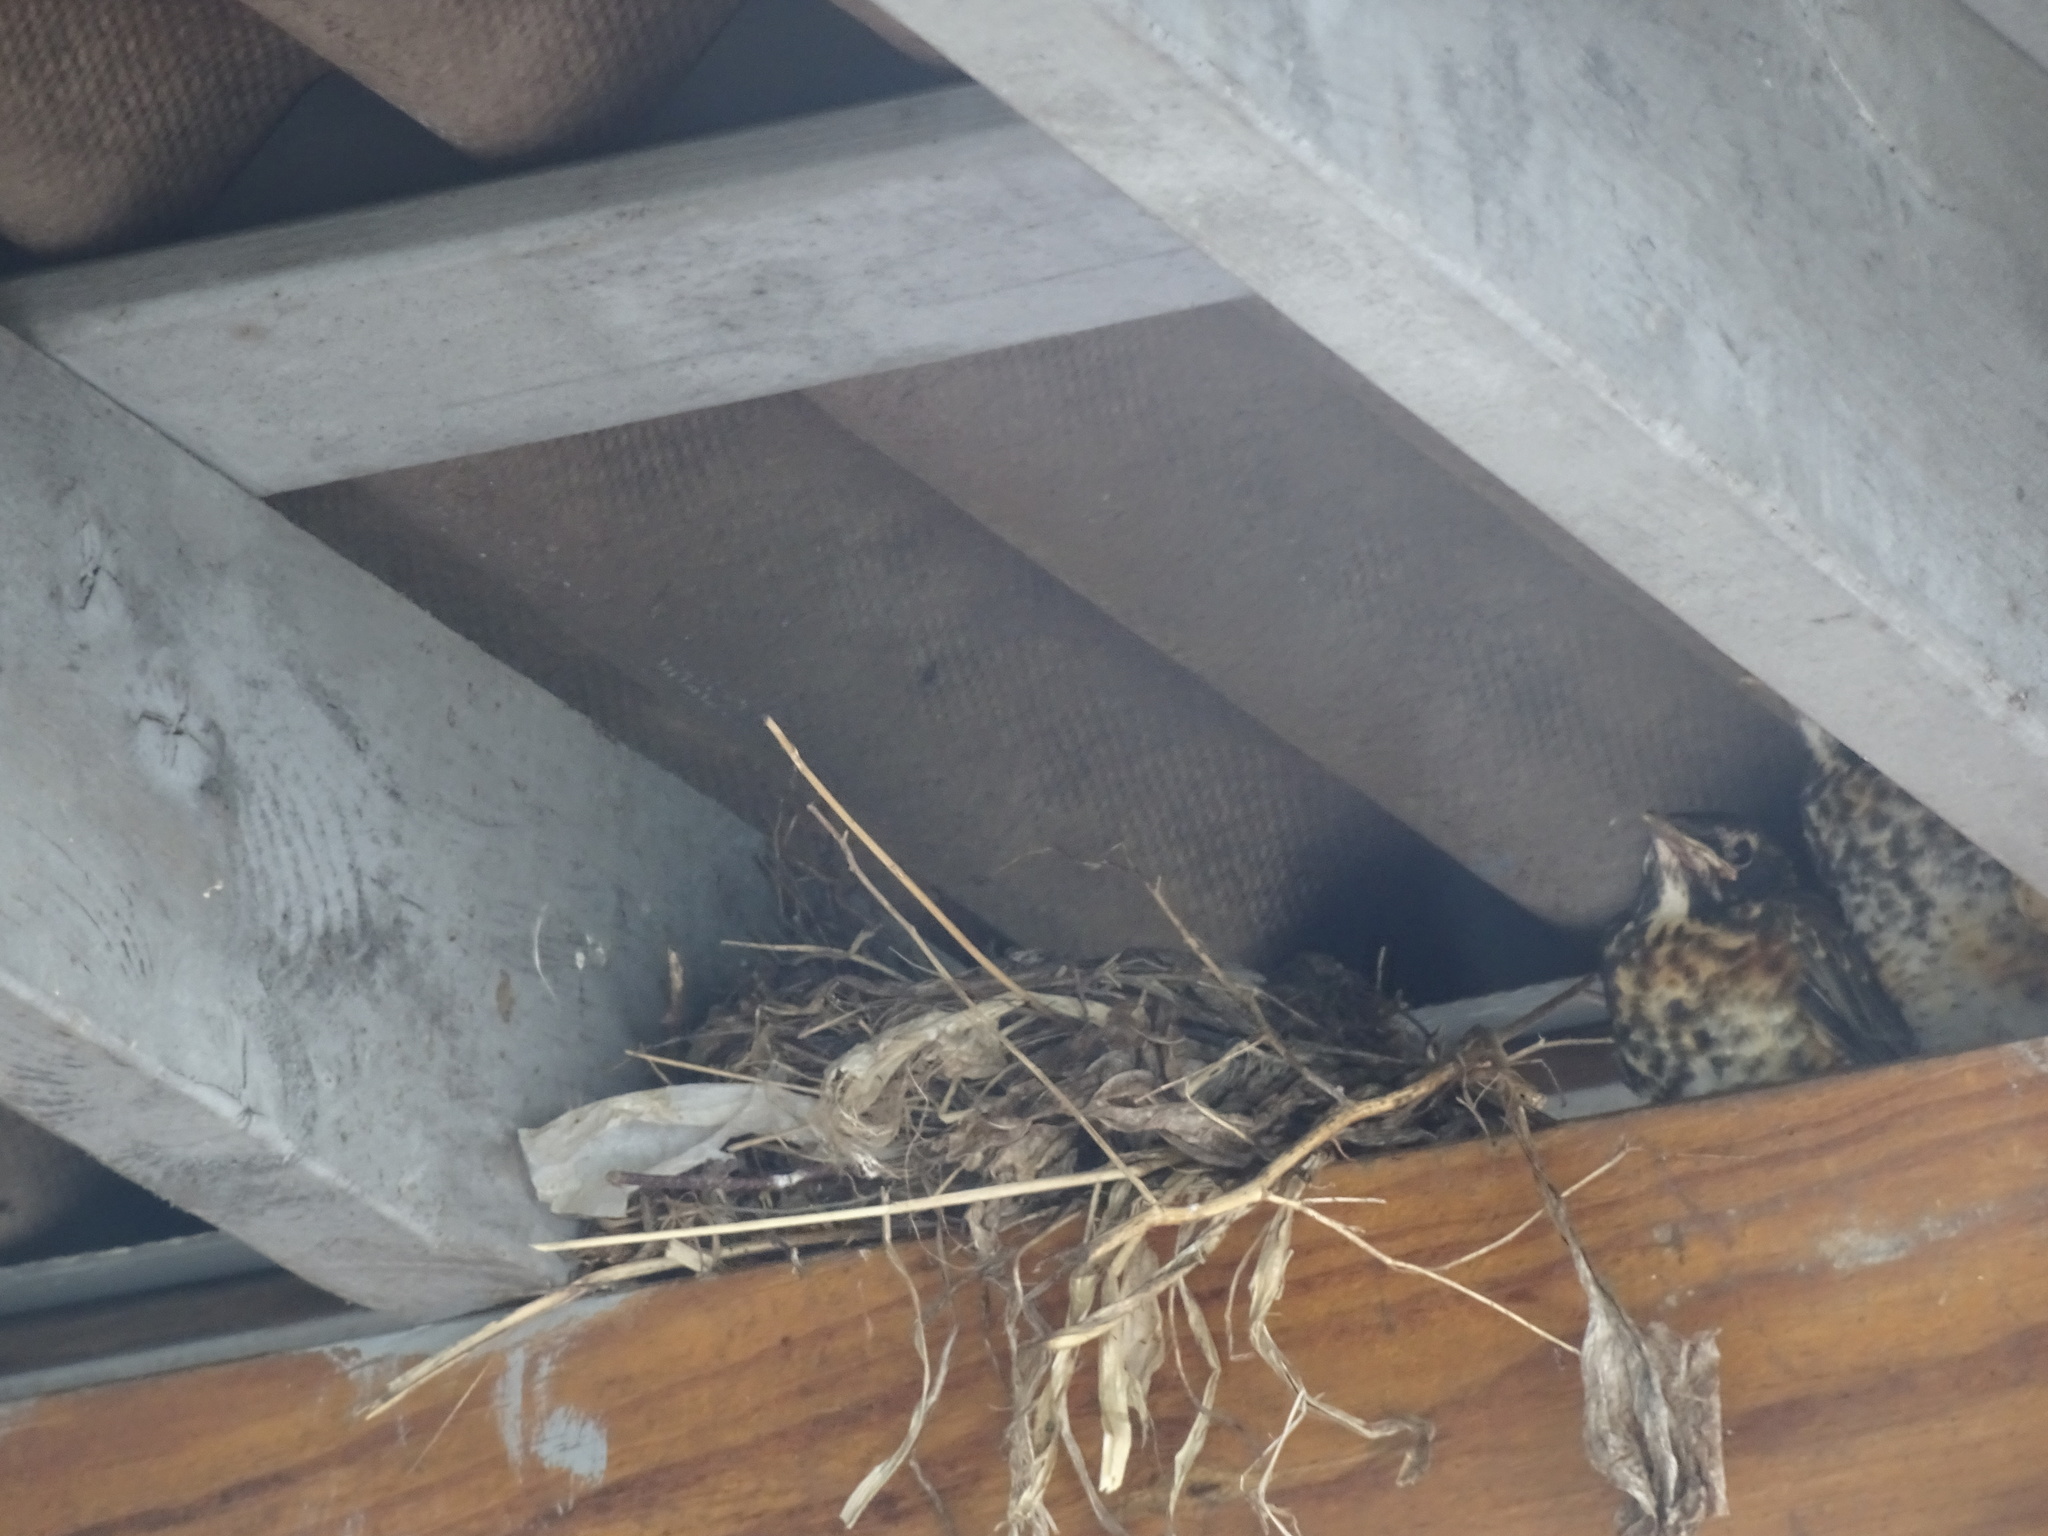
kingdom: Animalia
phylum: Chordata
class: Aves
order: Passeriformes
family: Turdidae
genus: Turdus
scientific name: Turdus migratorius
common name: American robin
